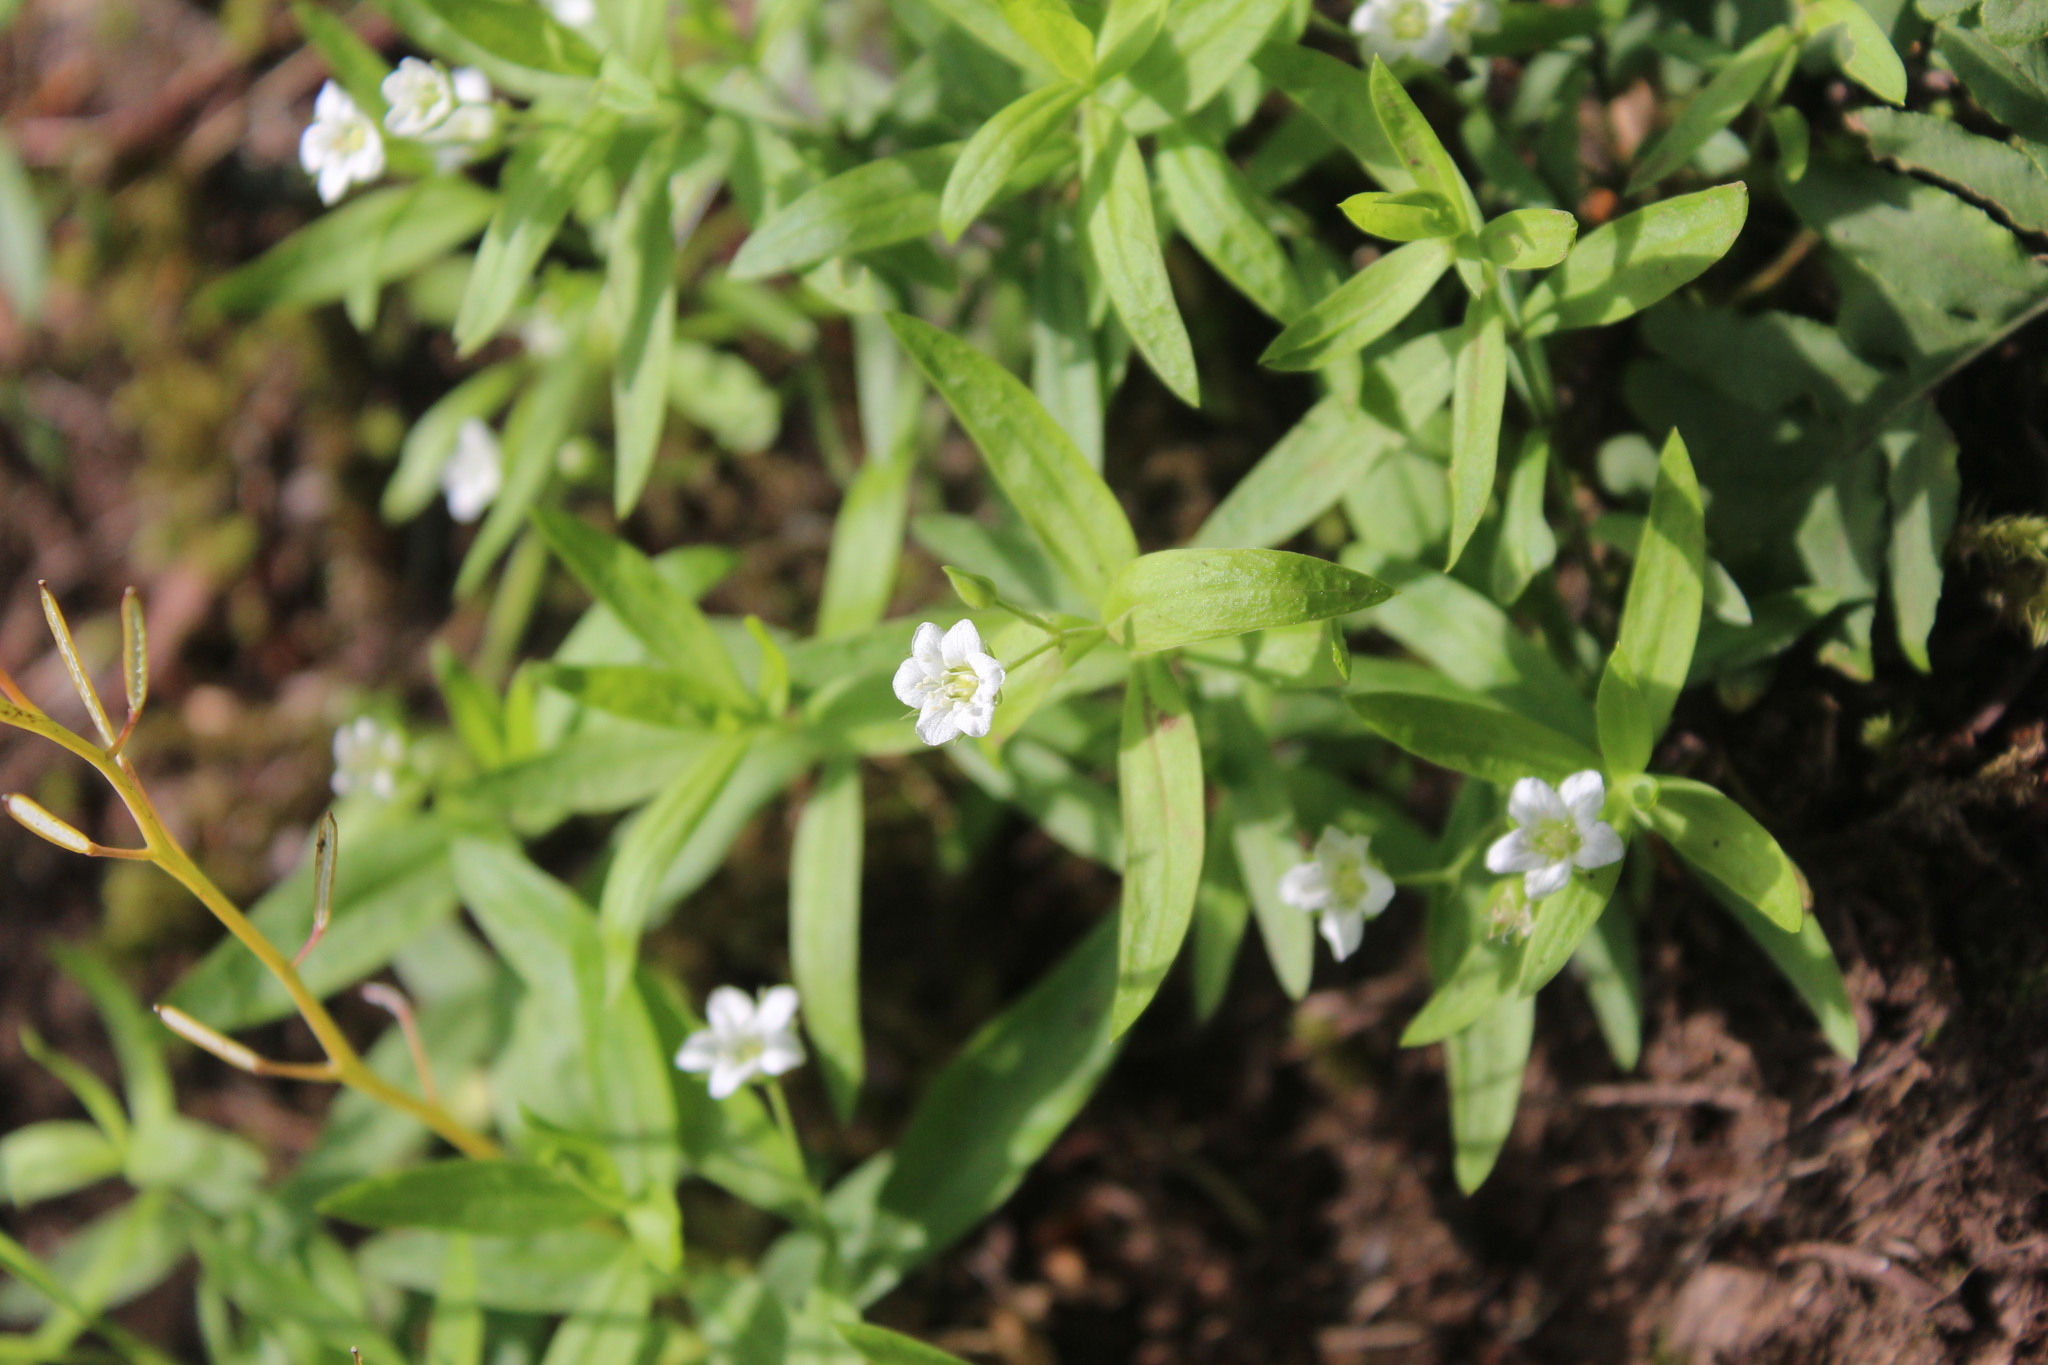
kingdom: Plantae
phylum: Tracheophyta
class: Magnoliopsida
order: Caryophyllales
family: Caryophyllaceae
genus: Moehringia
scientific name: Moehringia macrophylla
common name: Big-leaf sandwort
